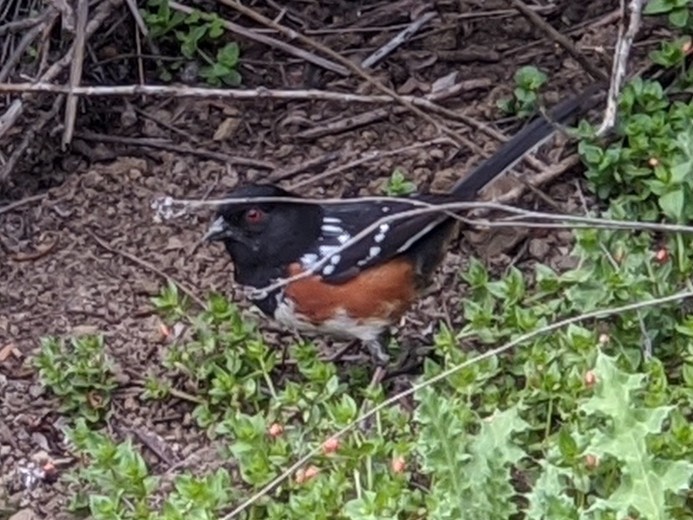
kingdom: Animalia
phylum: Chordata
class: Aves
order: Passeriformes
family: Passerellidae
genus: Pipilo
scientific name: Pipilo maculatus
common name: Spotted towhee
